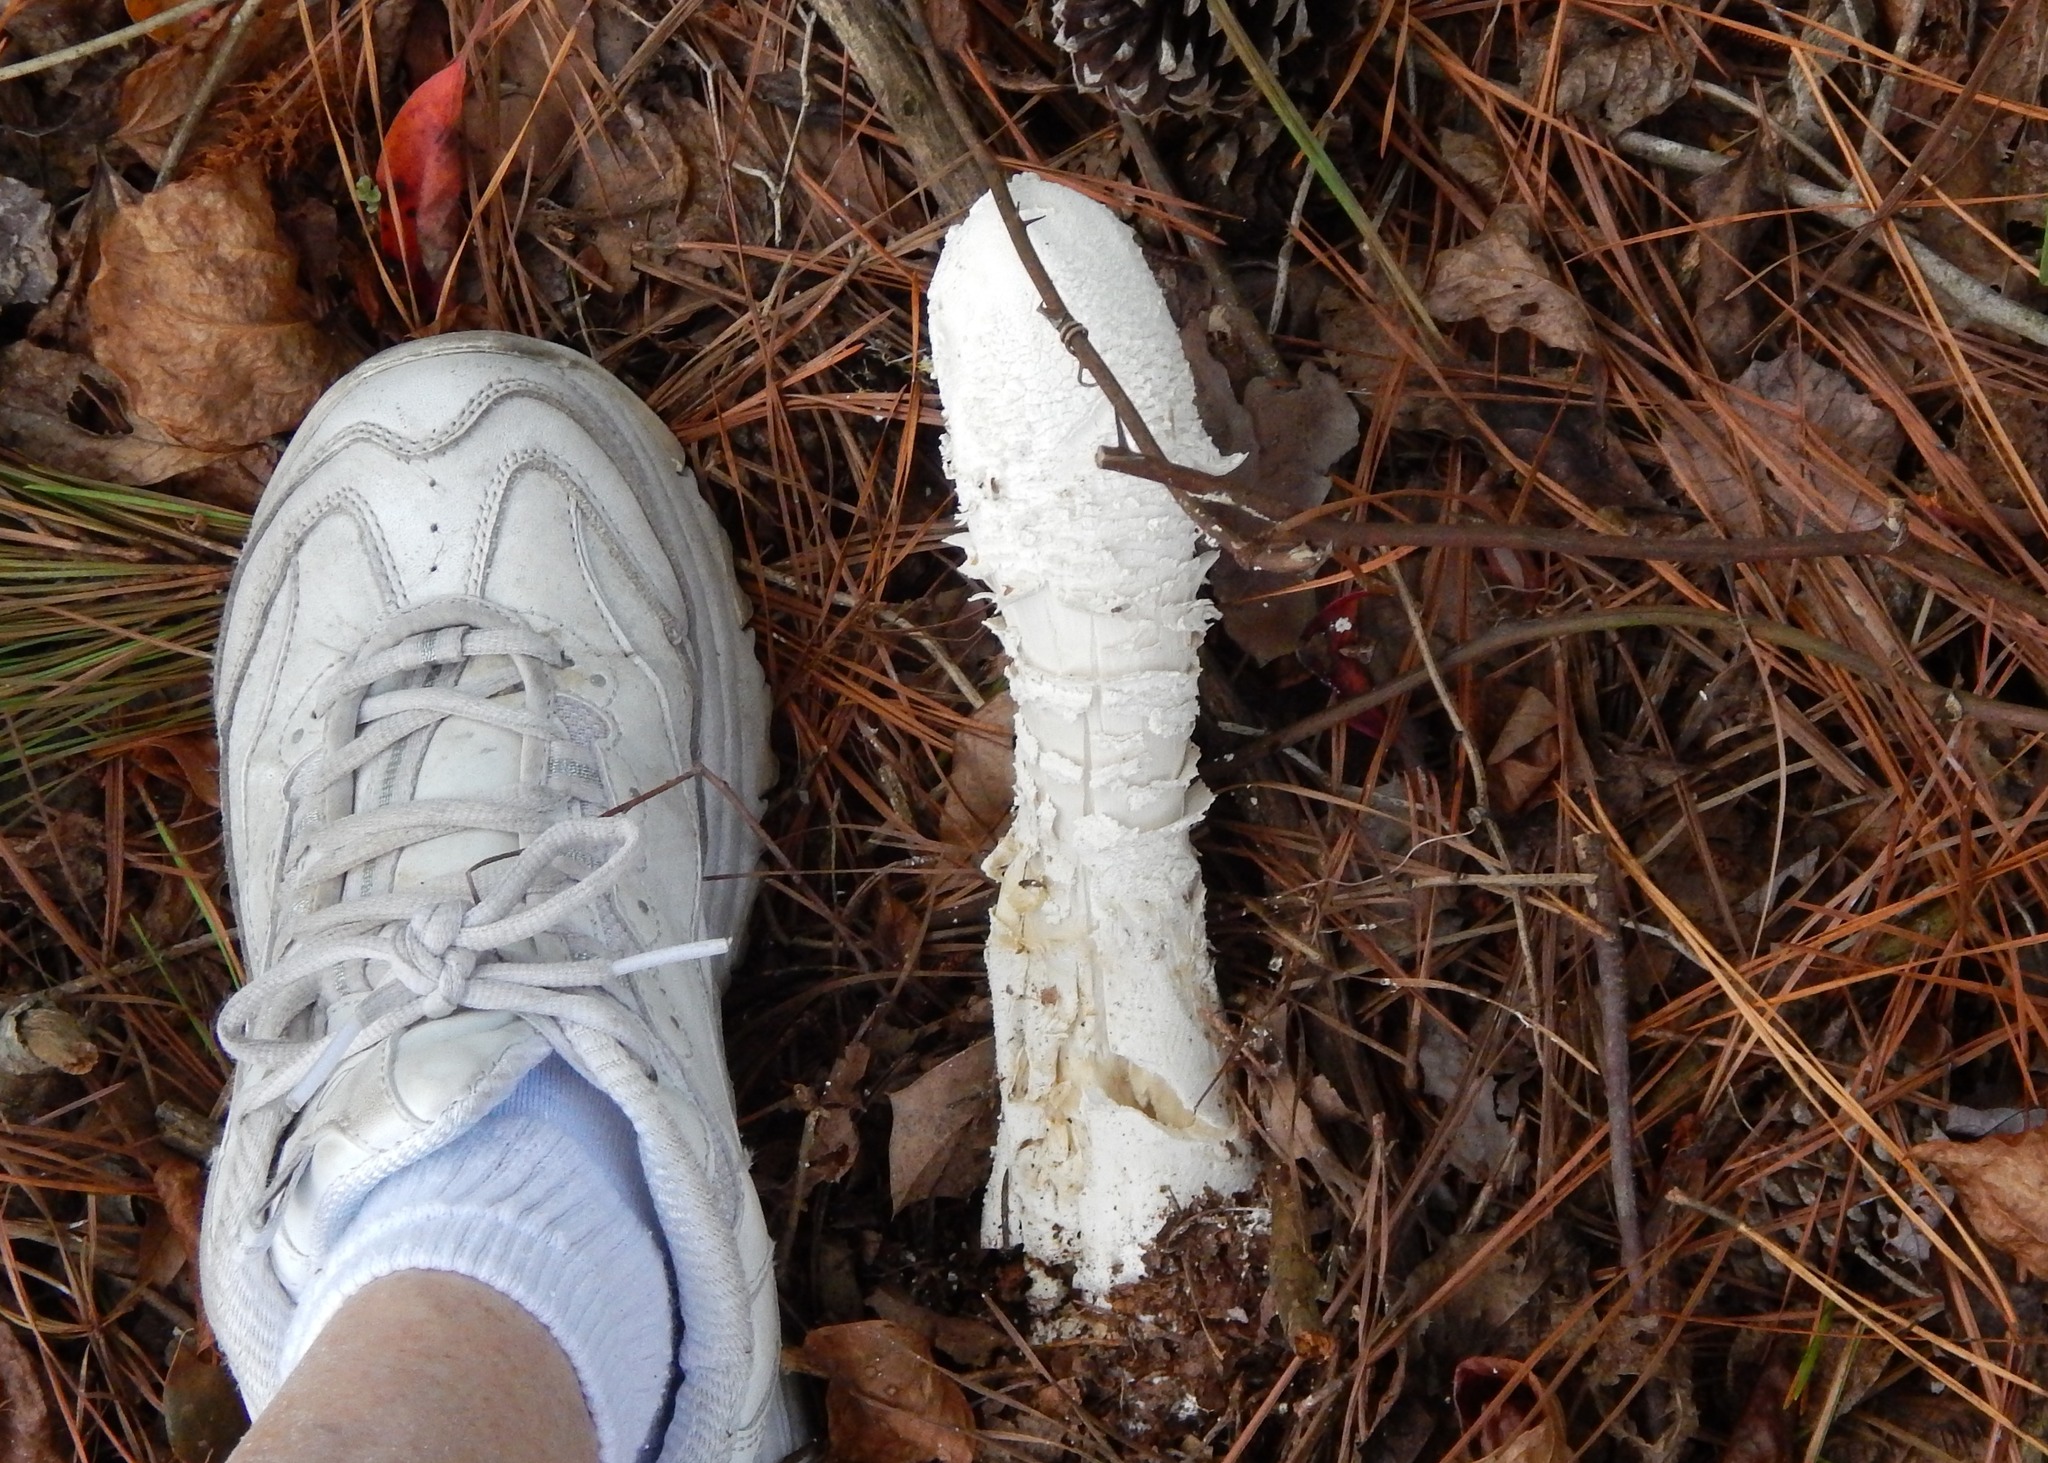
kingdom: Fungi
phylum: Ascomycota
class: Sordariomycetes
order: Hypocreales
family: Hypocreaceae
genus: Hypomyces
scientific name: Hypomyces hyalinus
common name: Amanita mold
